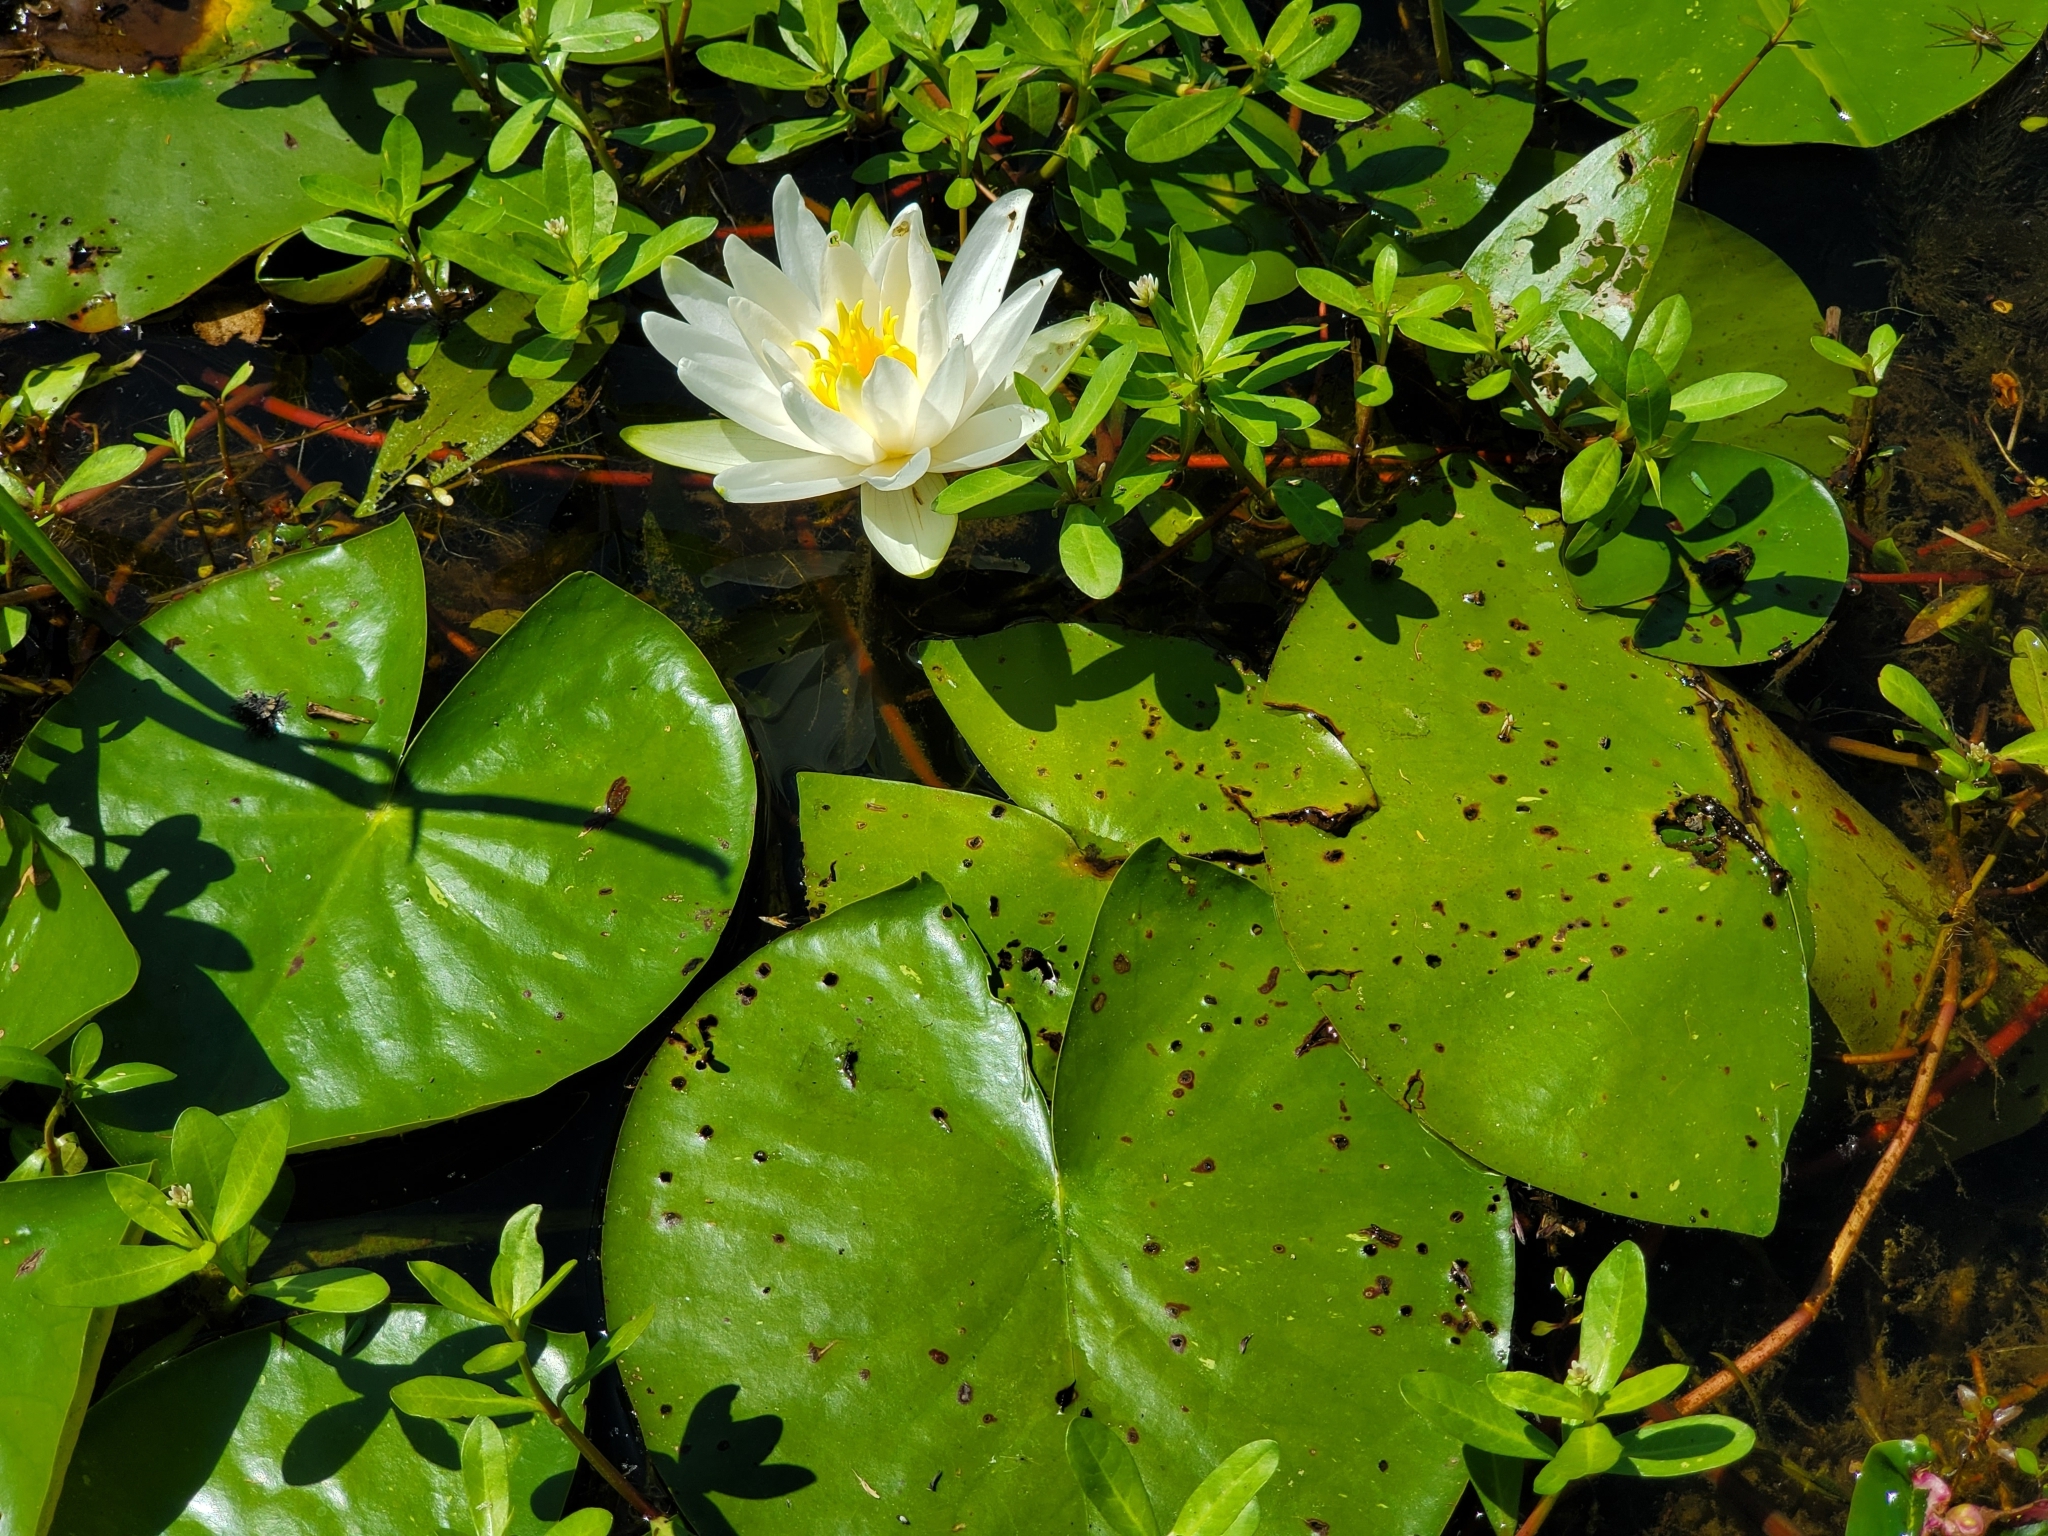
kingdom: Plantae
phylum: Tracheophyta
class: Magnoliopsida
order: Nymphaeales
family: Nymphaeaceae
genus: Nymphaea
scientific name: Nymphaea odorata
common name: Fragrant water-lily
